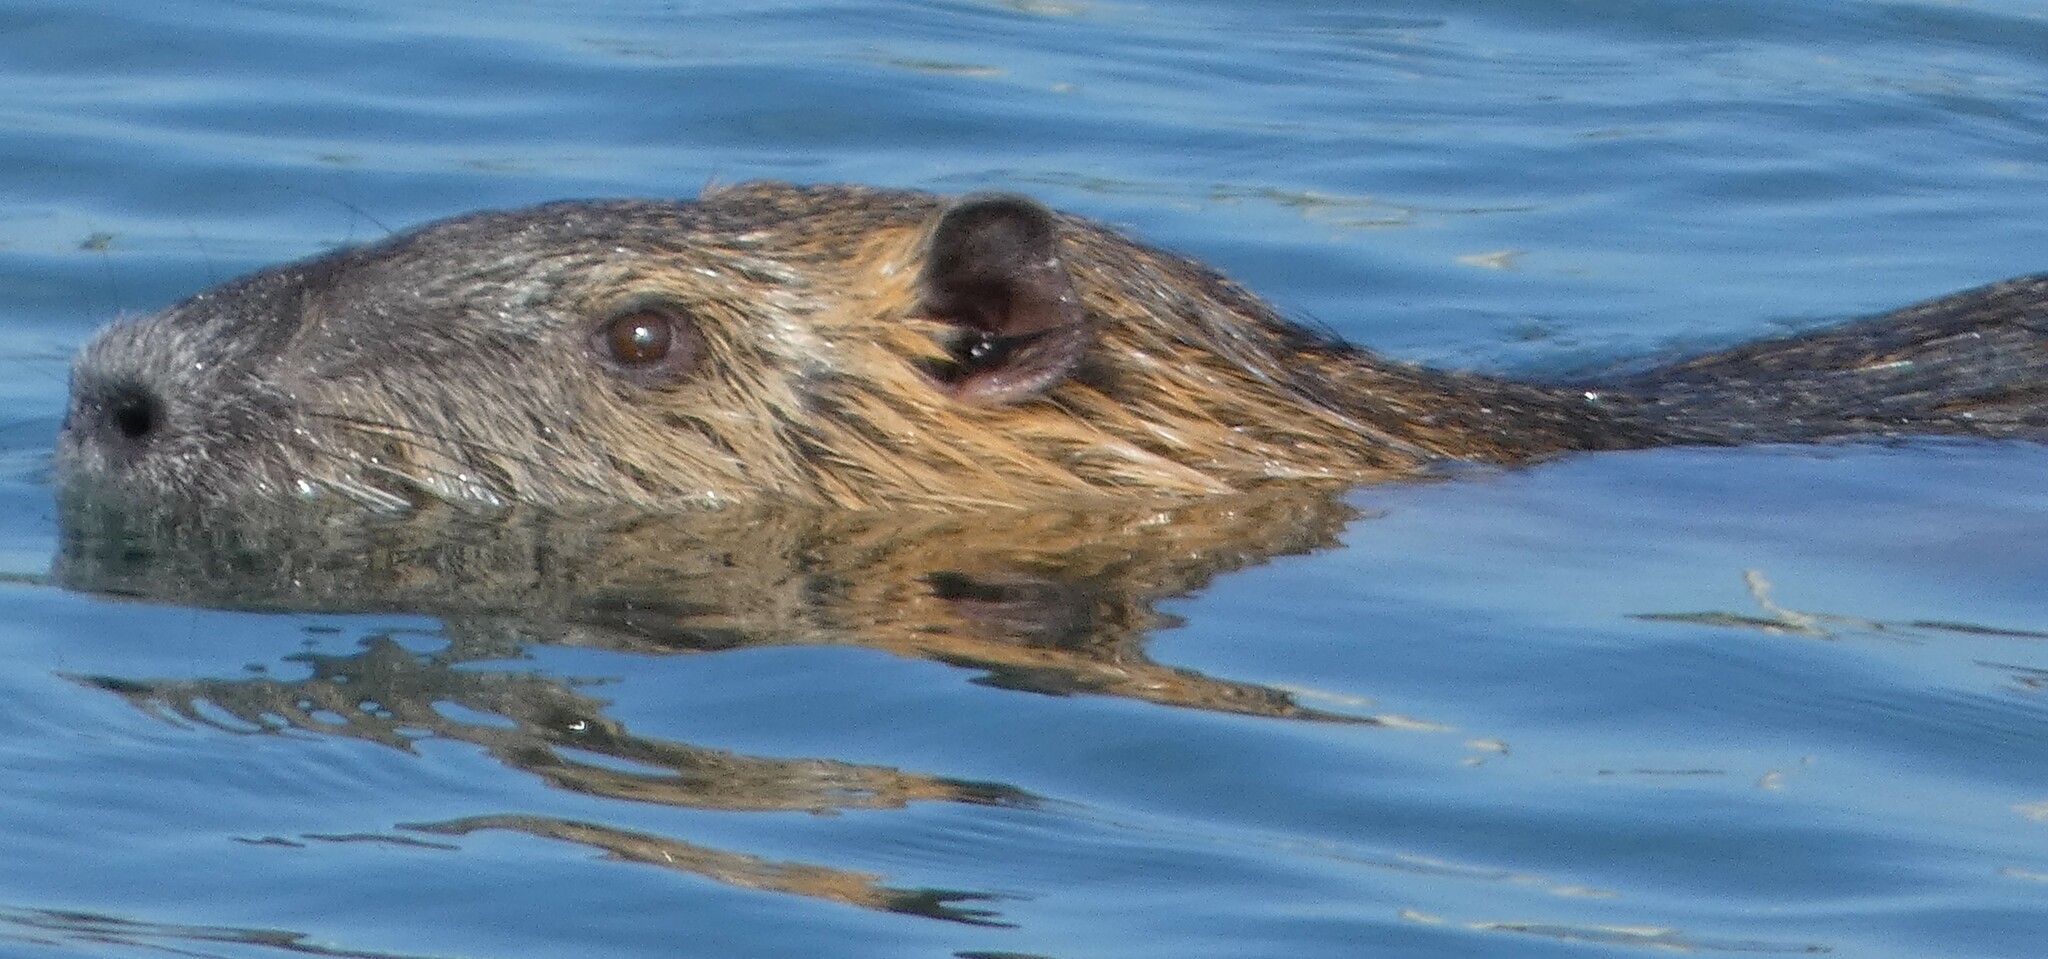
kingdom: Animalia
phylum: Chordata
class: Mammalia
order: Rodentia
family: Myocastoridae
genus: Myocastor
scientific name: Myocastor coypus
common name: Coypu
